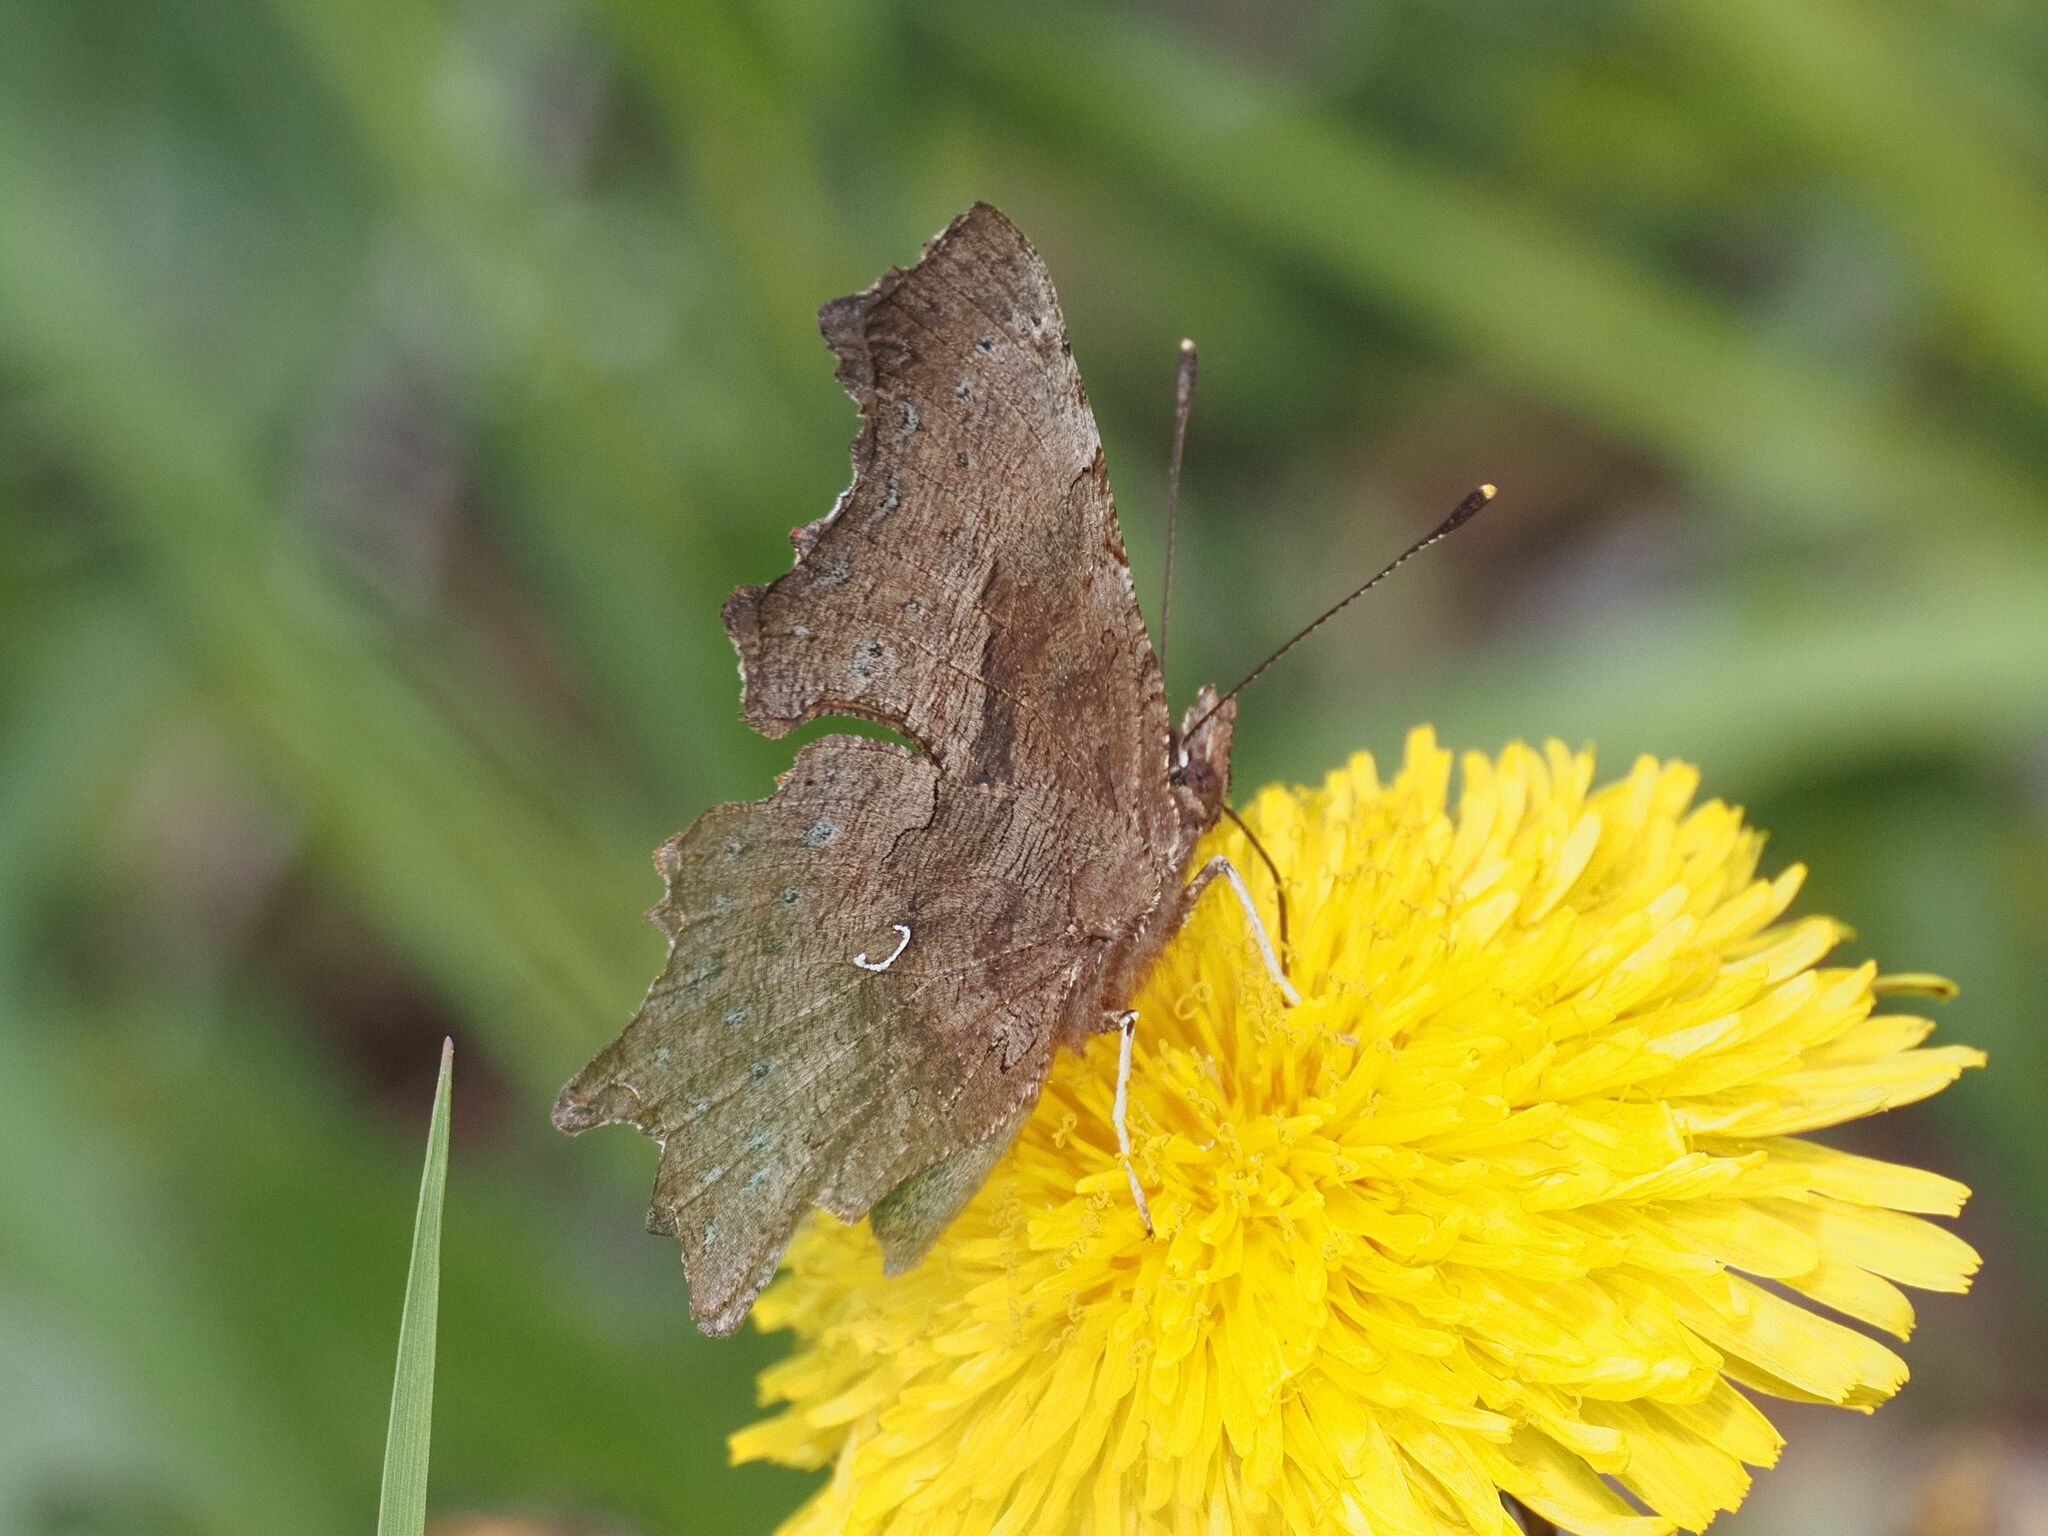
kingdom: Animalia
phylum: Arthropoda
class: Insecta
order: Lepidoptera
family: Nymphalidae
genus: Polygonia
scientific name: Polygonia c-album
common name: Comma
